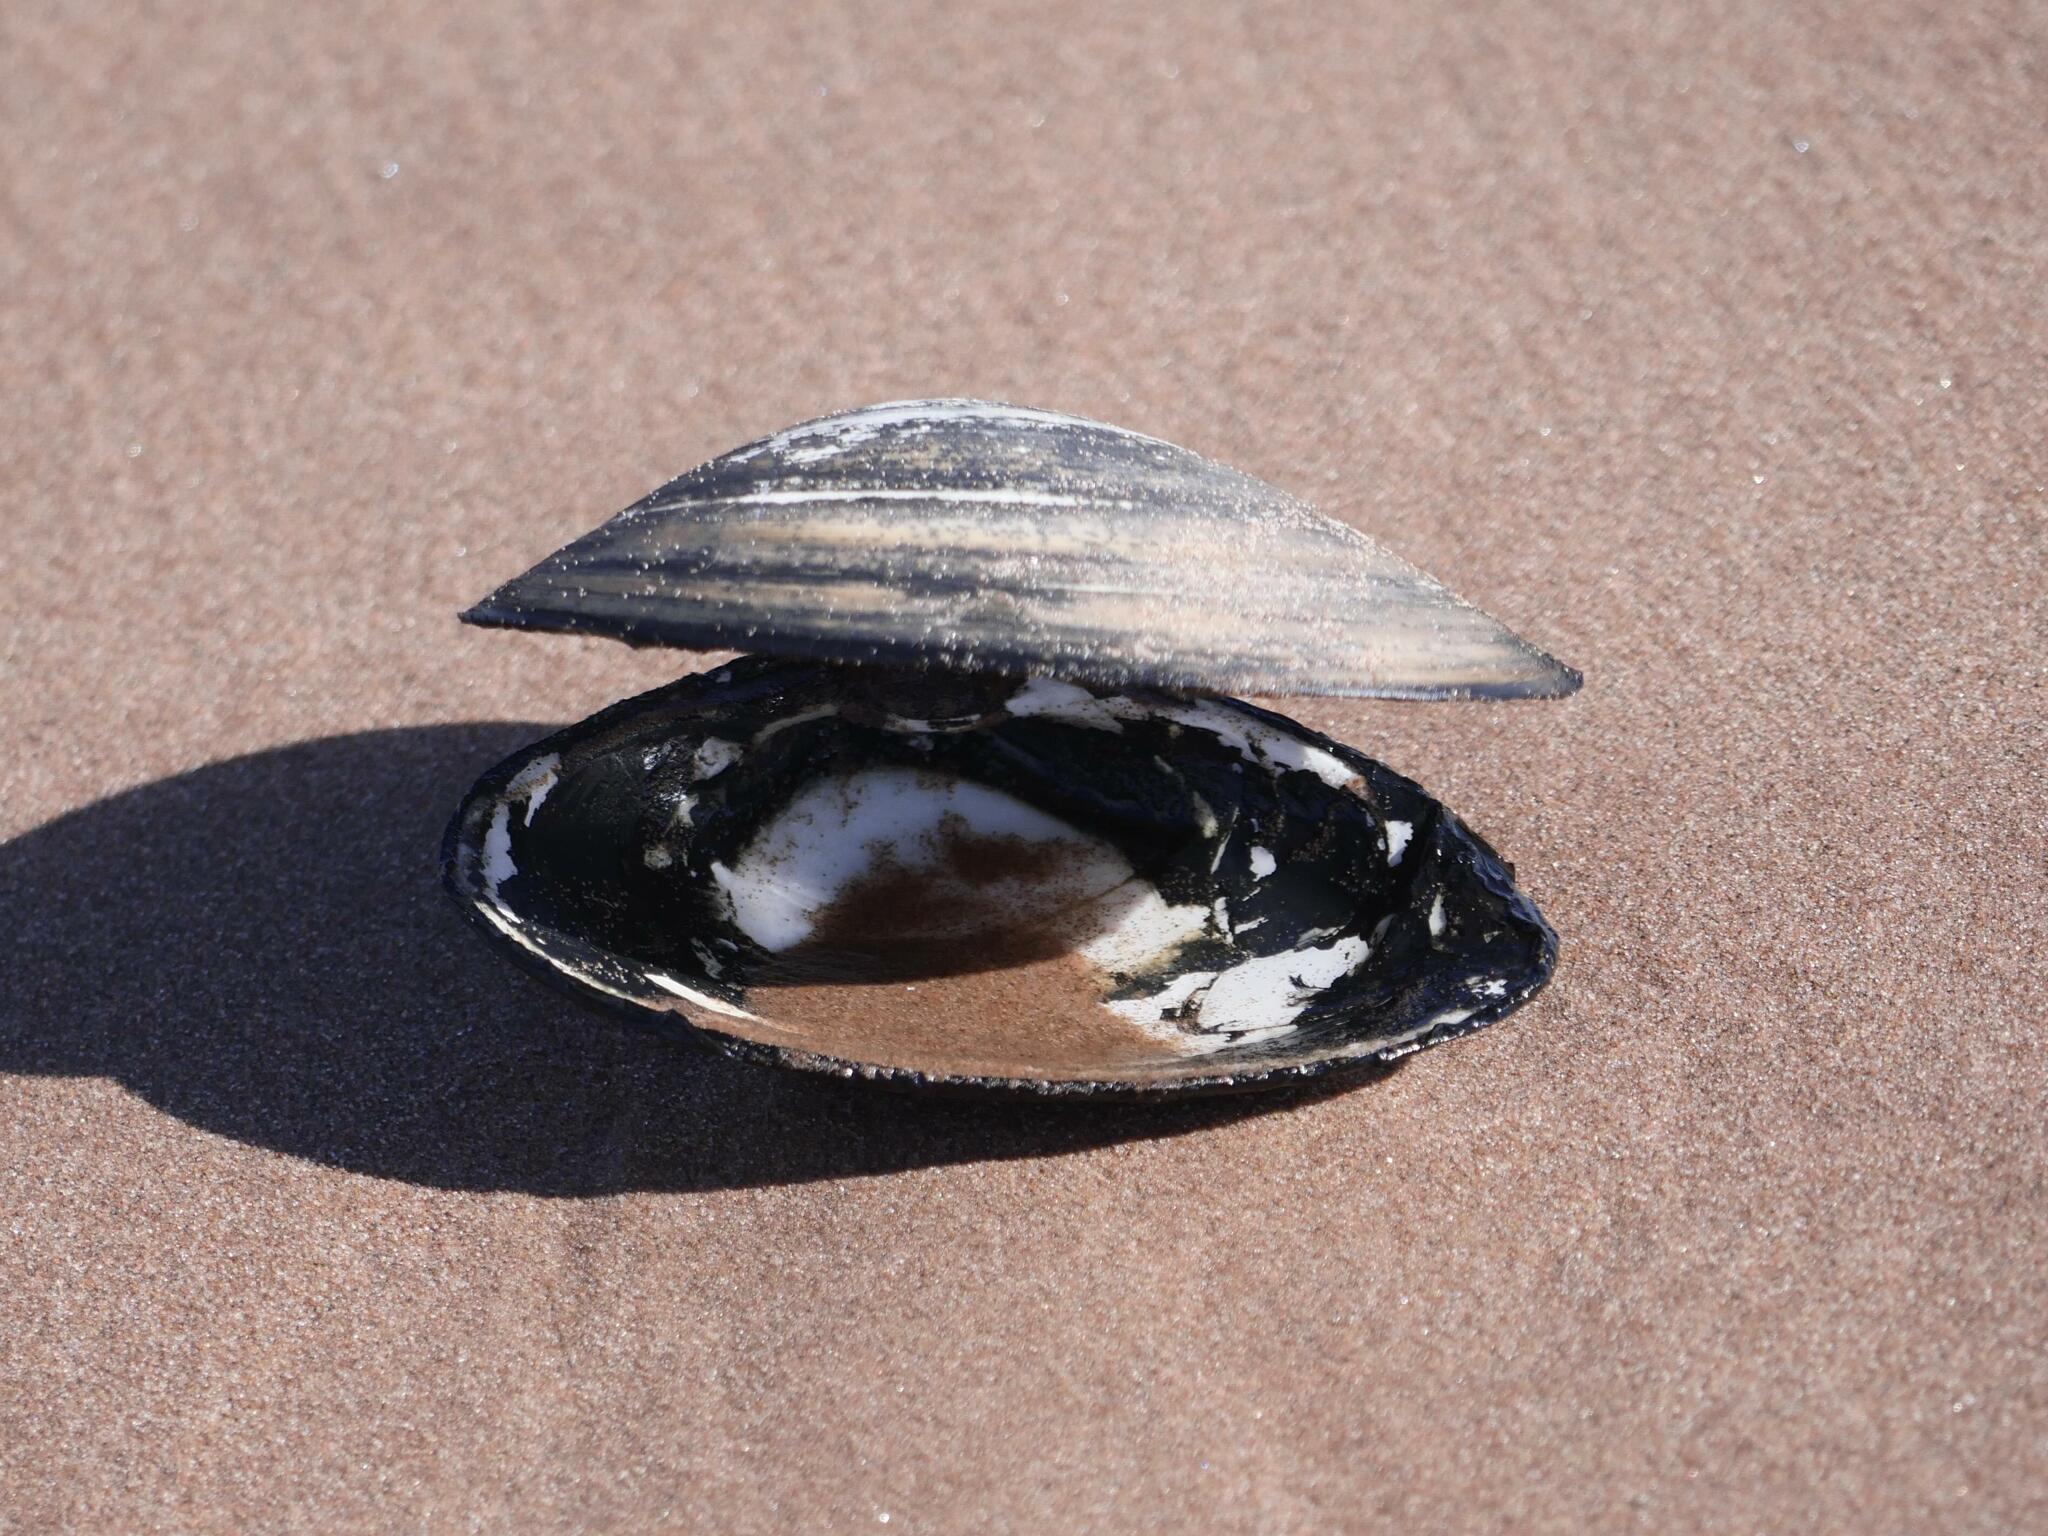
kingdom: Animalia
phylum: Mollusca
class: Bivalvia
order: Venerida
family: Mactridae
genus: Spisula
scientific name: Spisula solidissima
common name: Atlantic surf clam
